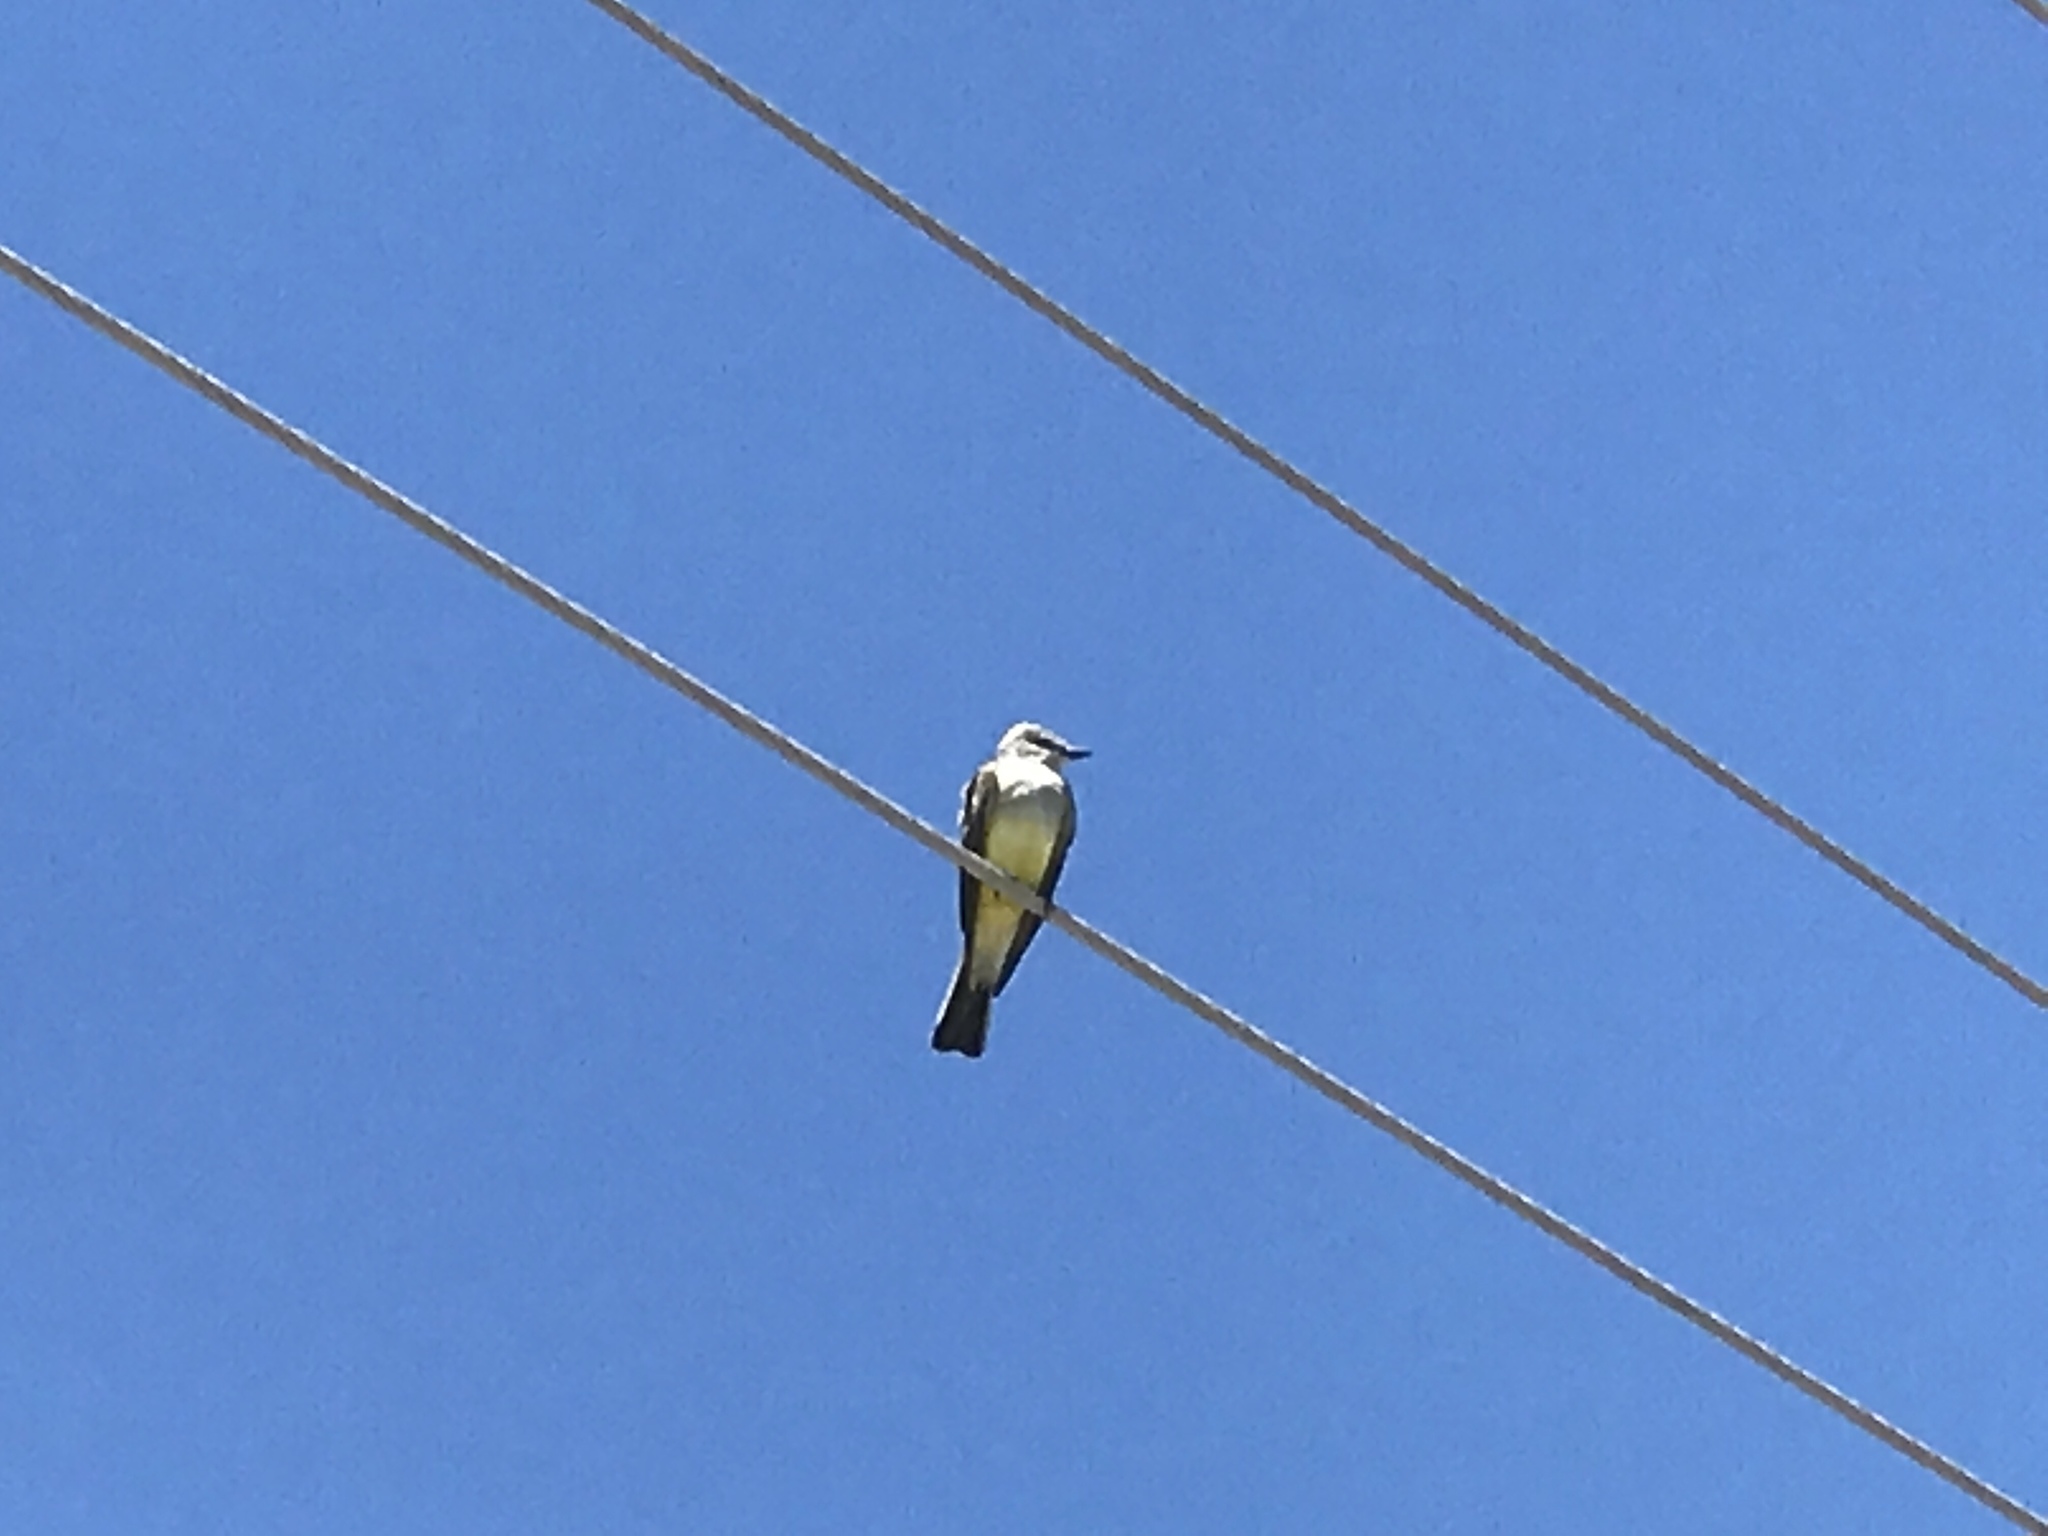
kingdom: Animalia
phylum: Chordata
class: Aves
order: Passeriformes
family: Tyrannidae
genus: Tyrannus
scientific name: Tyrannus verticalis
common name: Western kingbird
